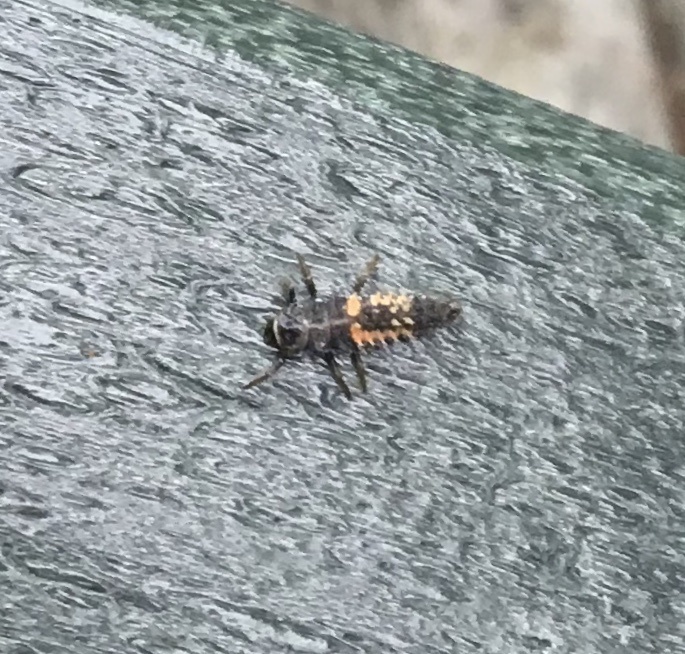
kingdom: Animalia
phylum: Arthropoda
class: Insecta
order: Coleoptera
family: Coccinellidae
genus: Harmonia
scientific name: Harmonia axyridis
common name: Harlequin ladybird
